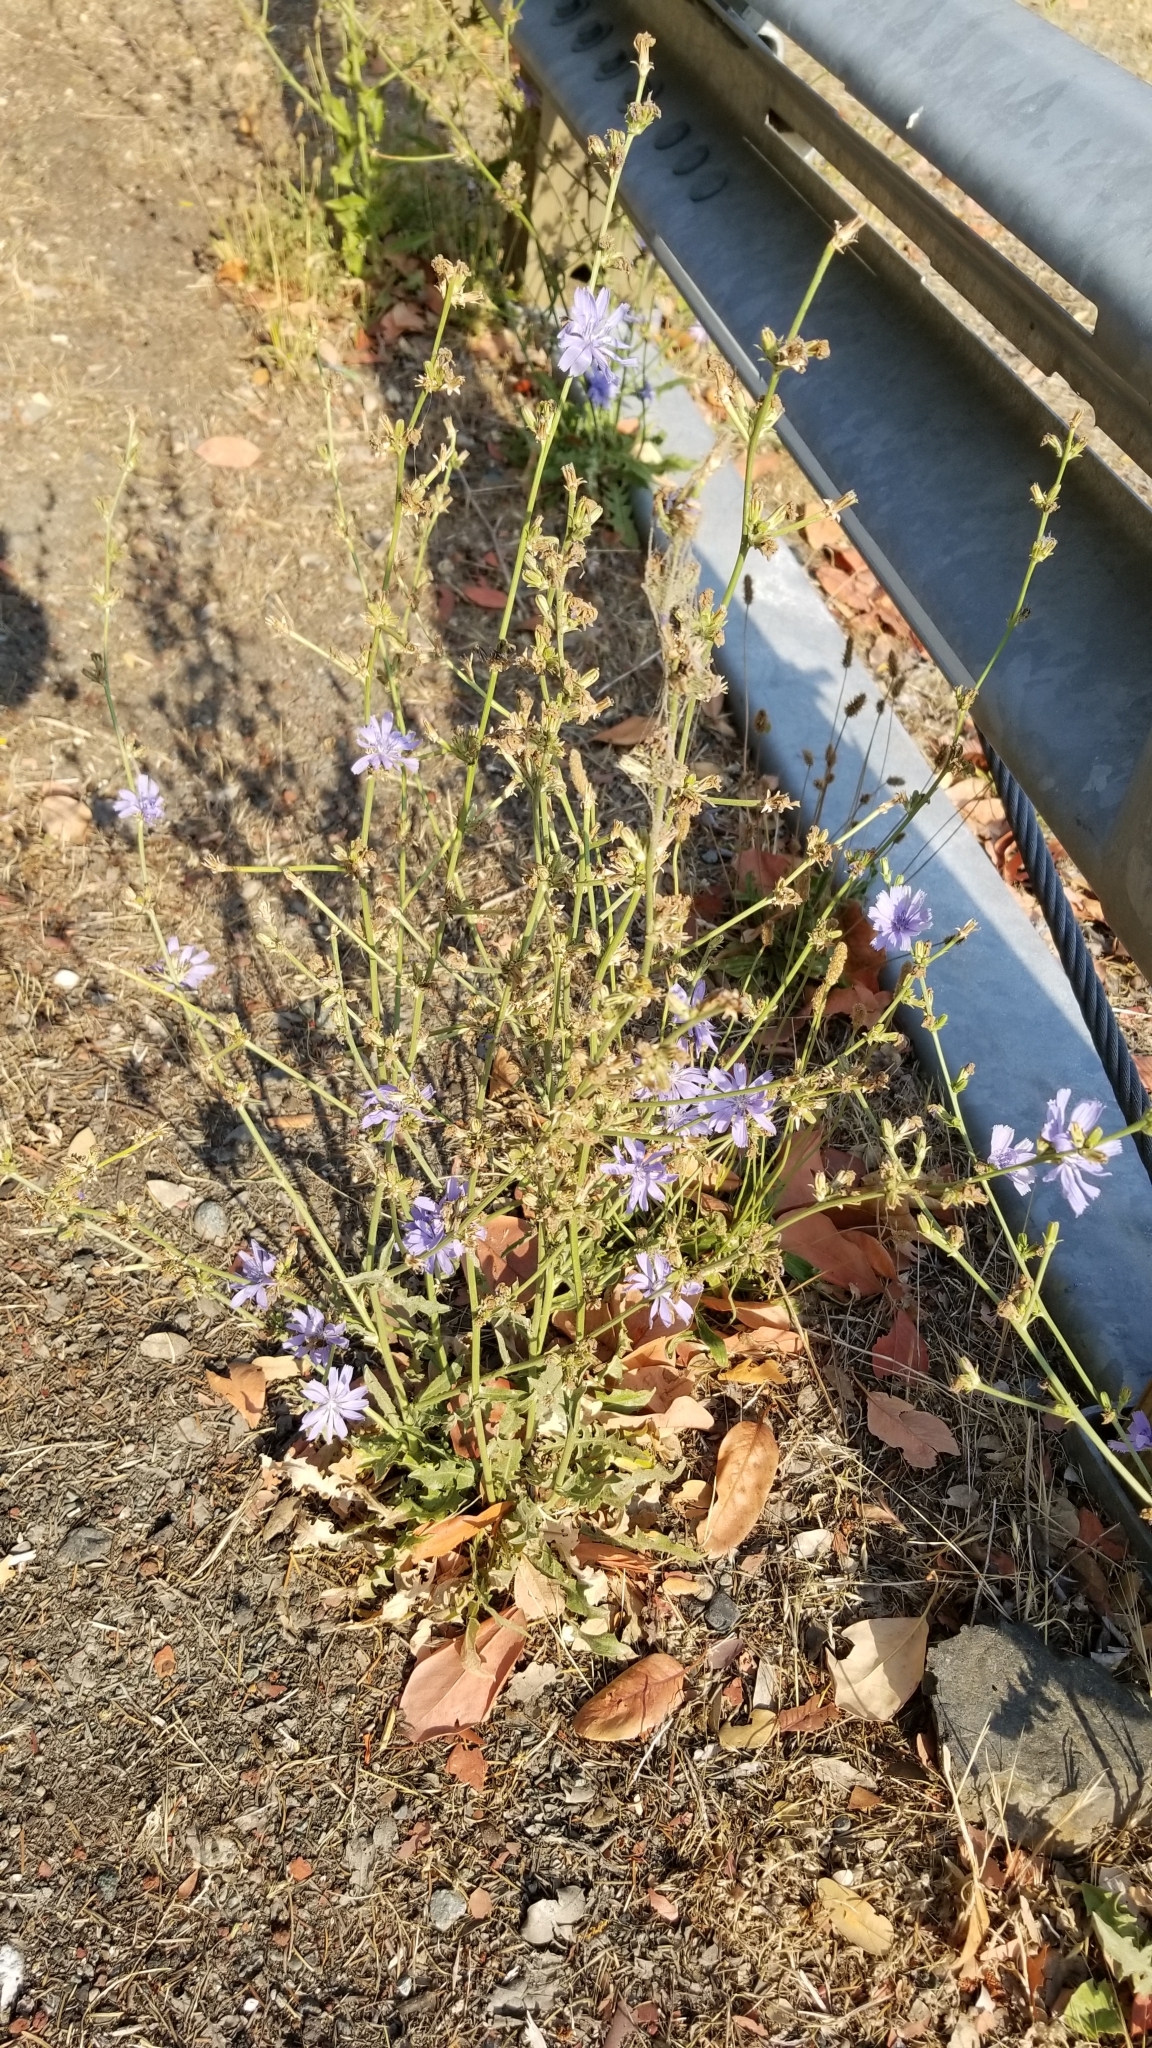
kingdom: Plantae
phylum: Tracheophyta
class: Magnoliopsida
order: Asterales
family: Asteraceae
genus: Cichorium
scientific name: Cichorium intybus
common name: Chicory
